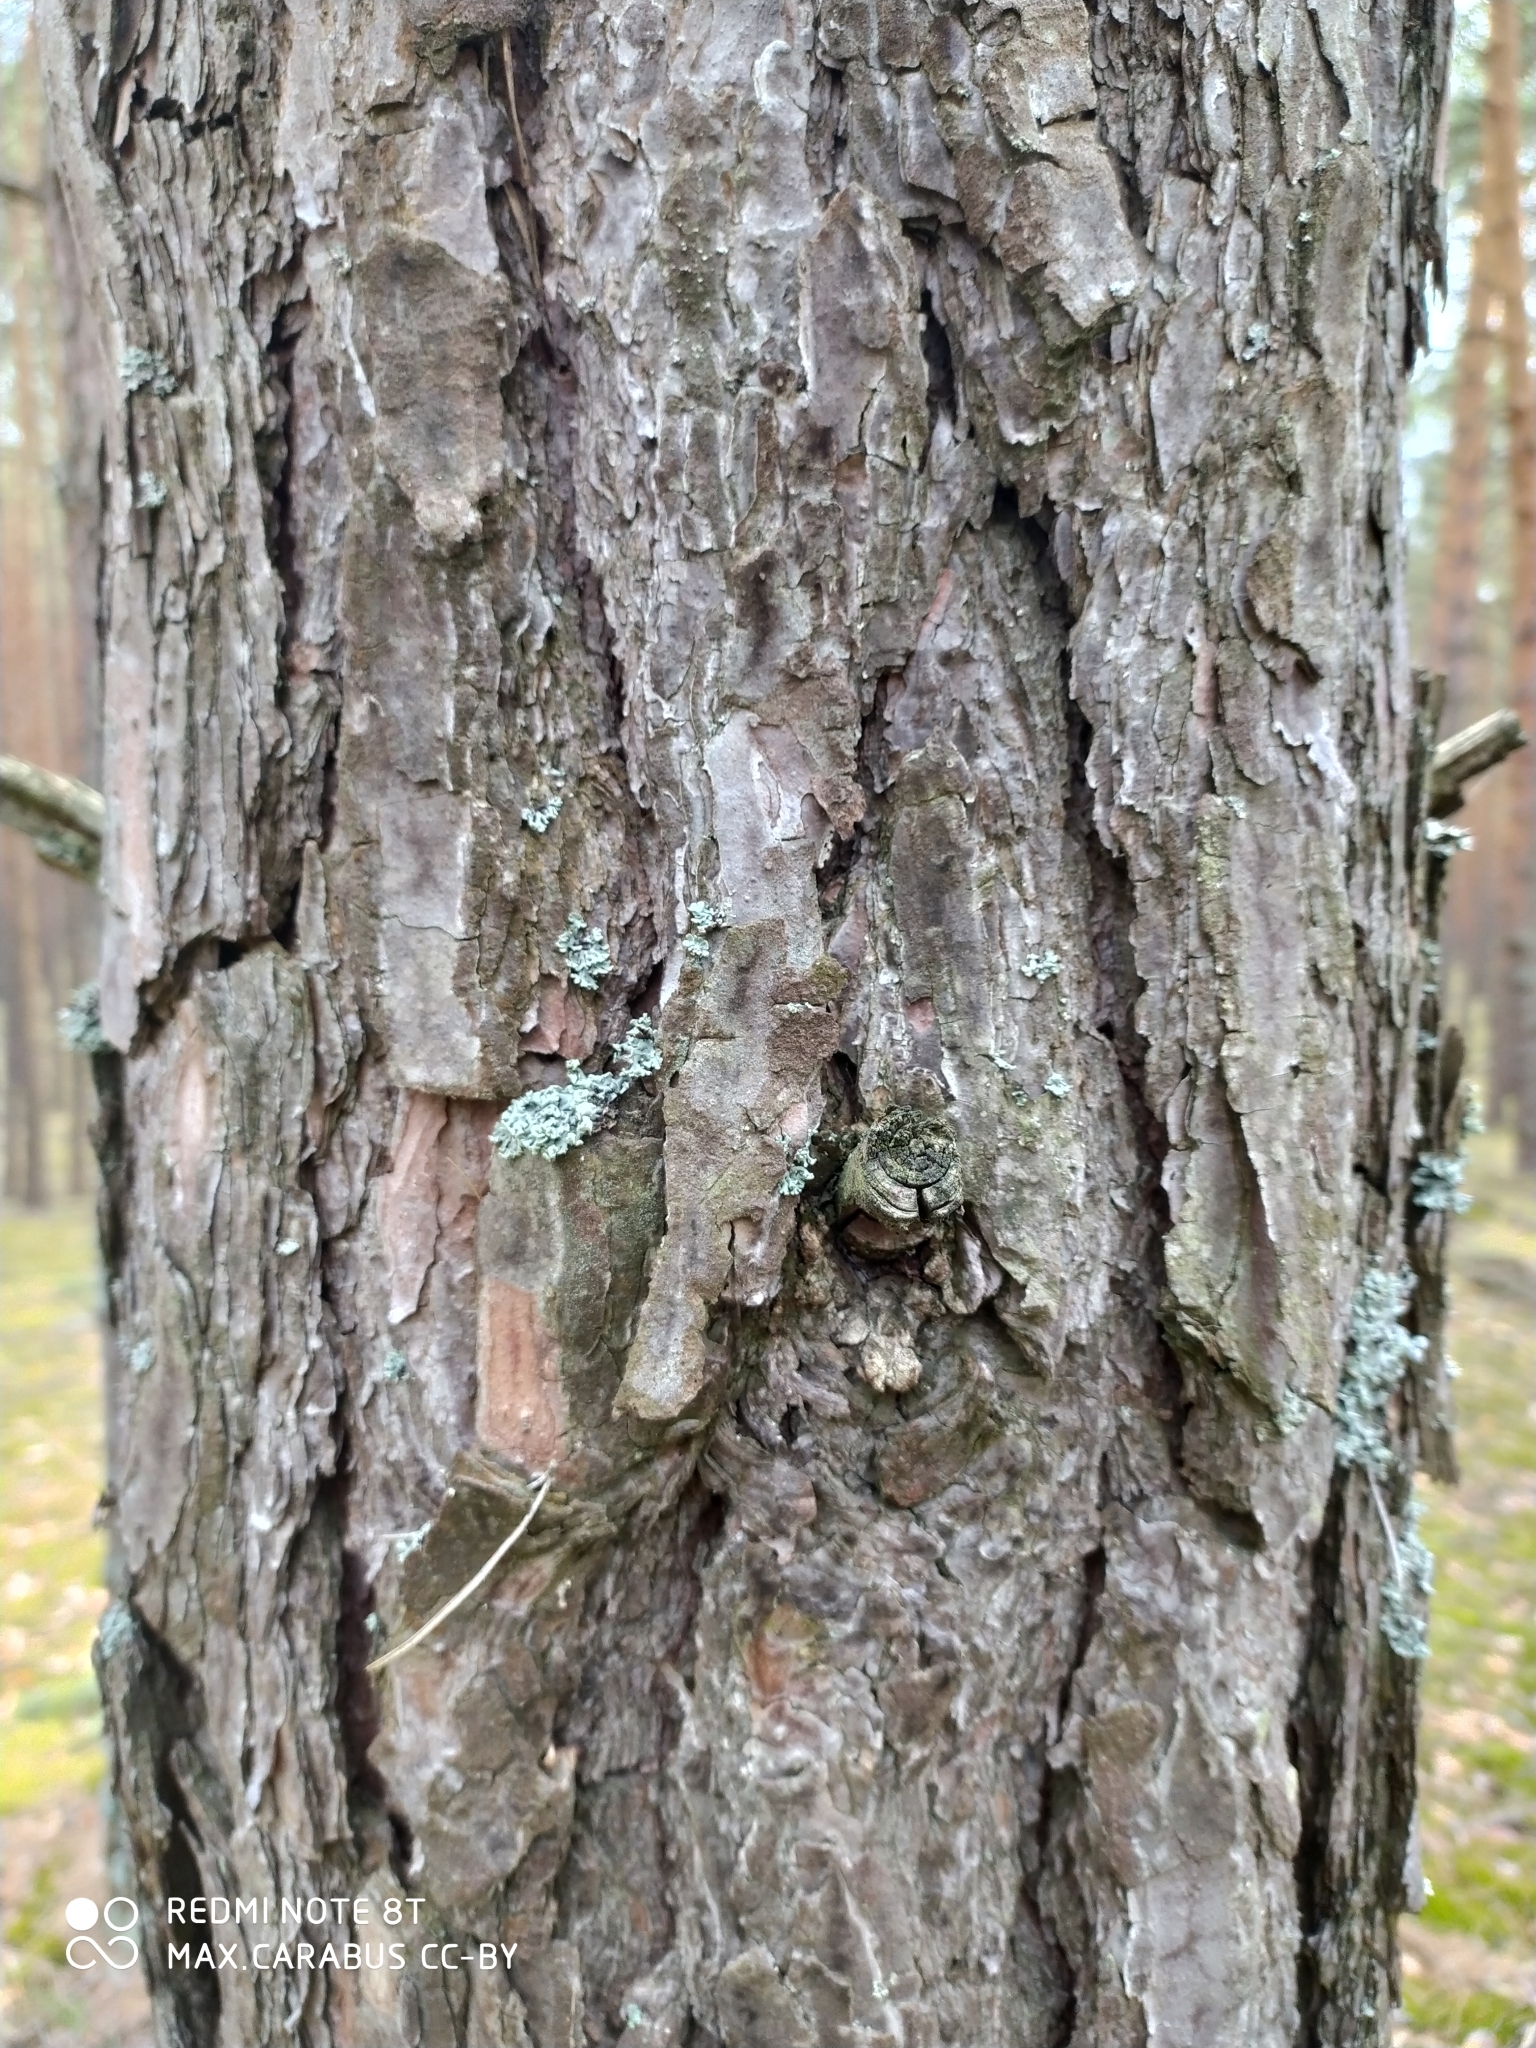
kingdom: Plantae
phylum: Tracheophyta
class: Pinopsida
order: Pinales
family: Pinaceae
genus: Pinus
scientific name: Pinus sylvestris
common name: Scots pine
